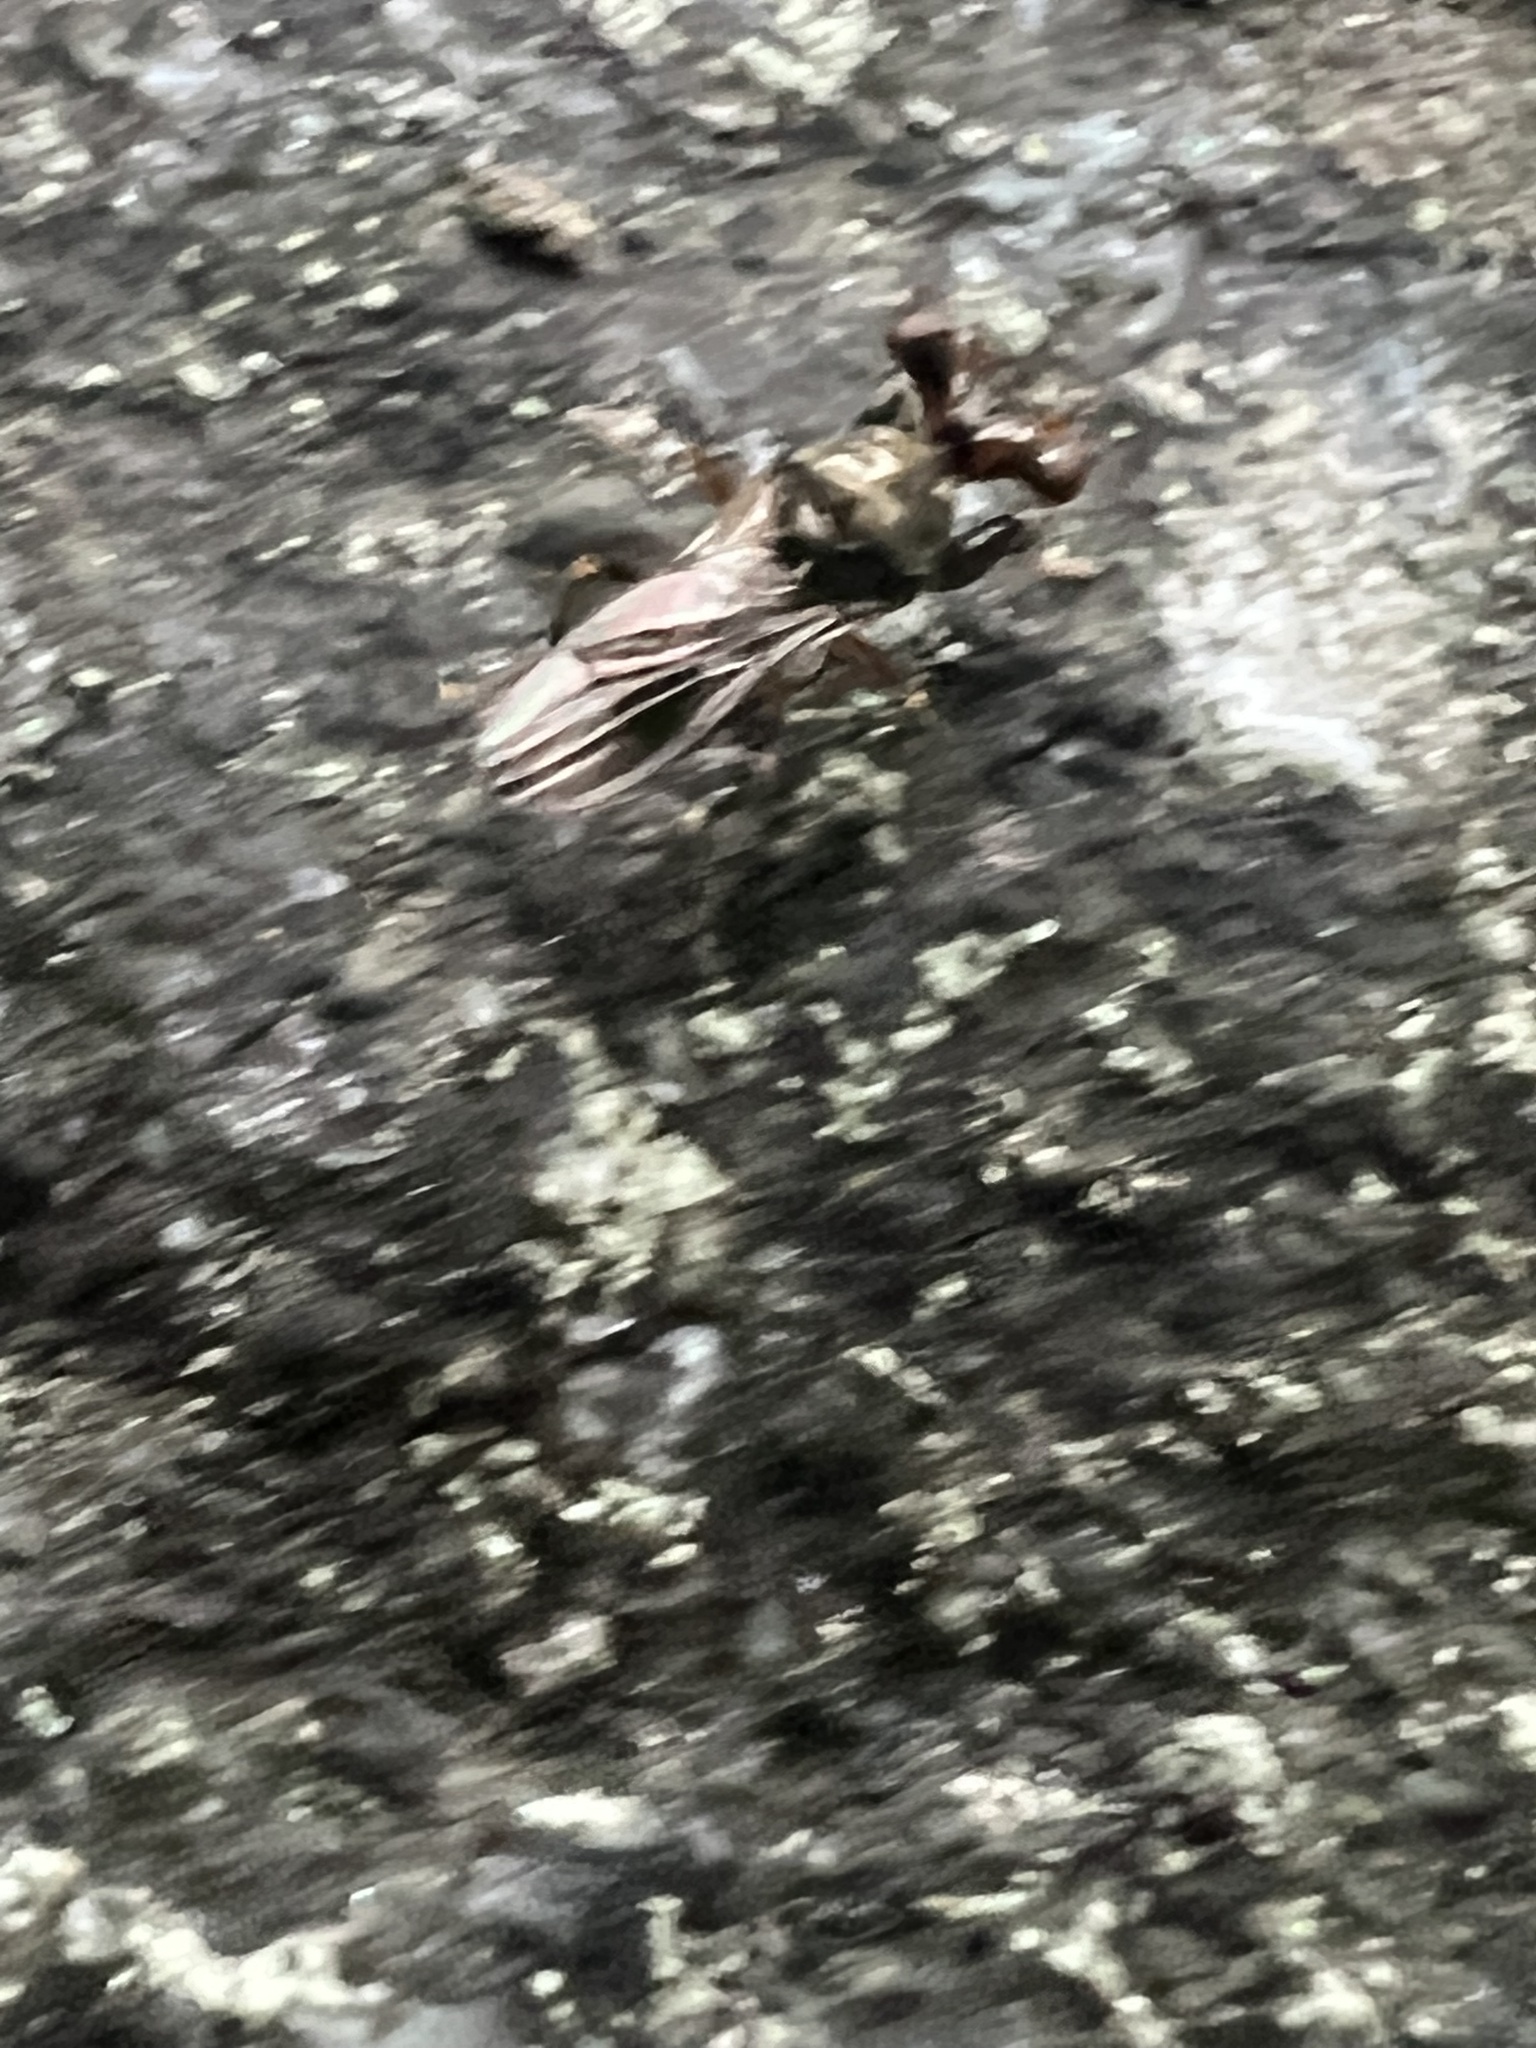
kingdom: Animalia
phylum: Arthropoda
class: Insecta
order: Diptera
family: Diopsidae
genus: Sphyracephala
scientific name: Sphyracephala brevicornis
